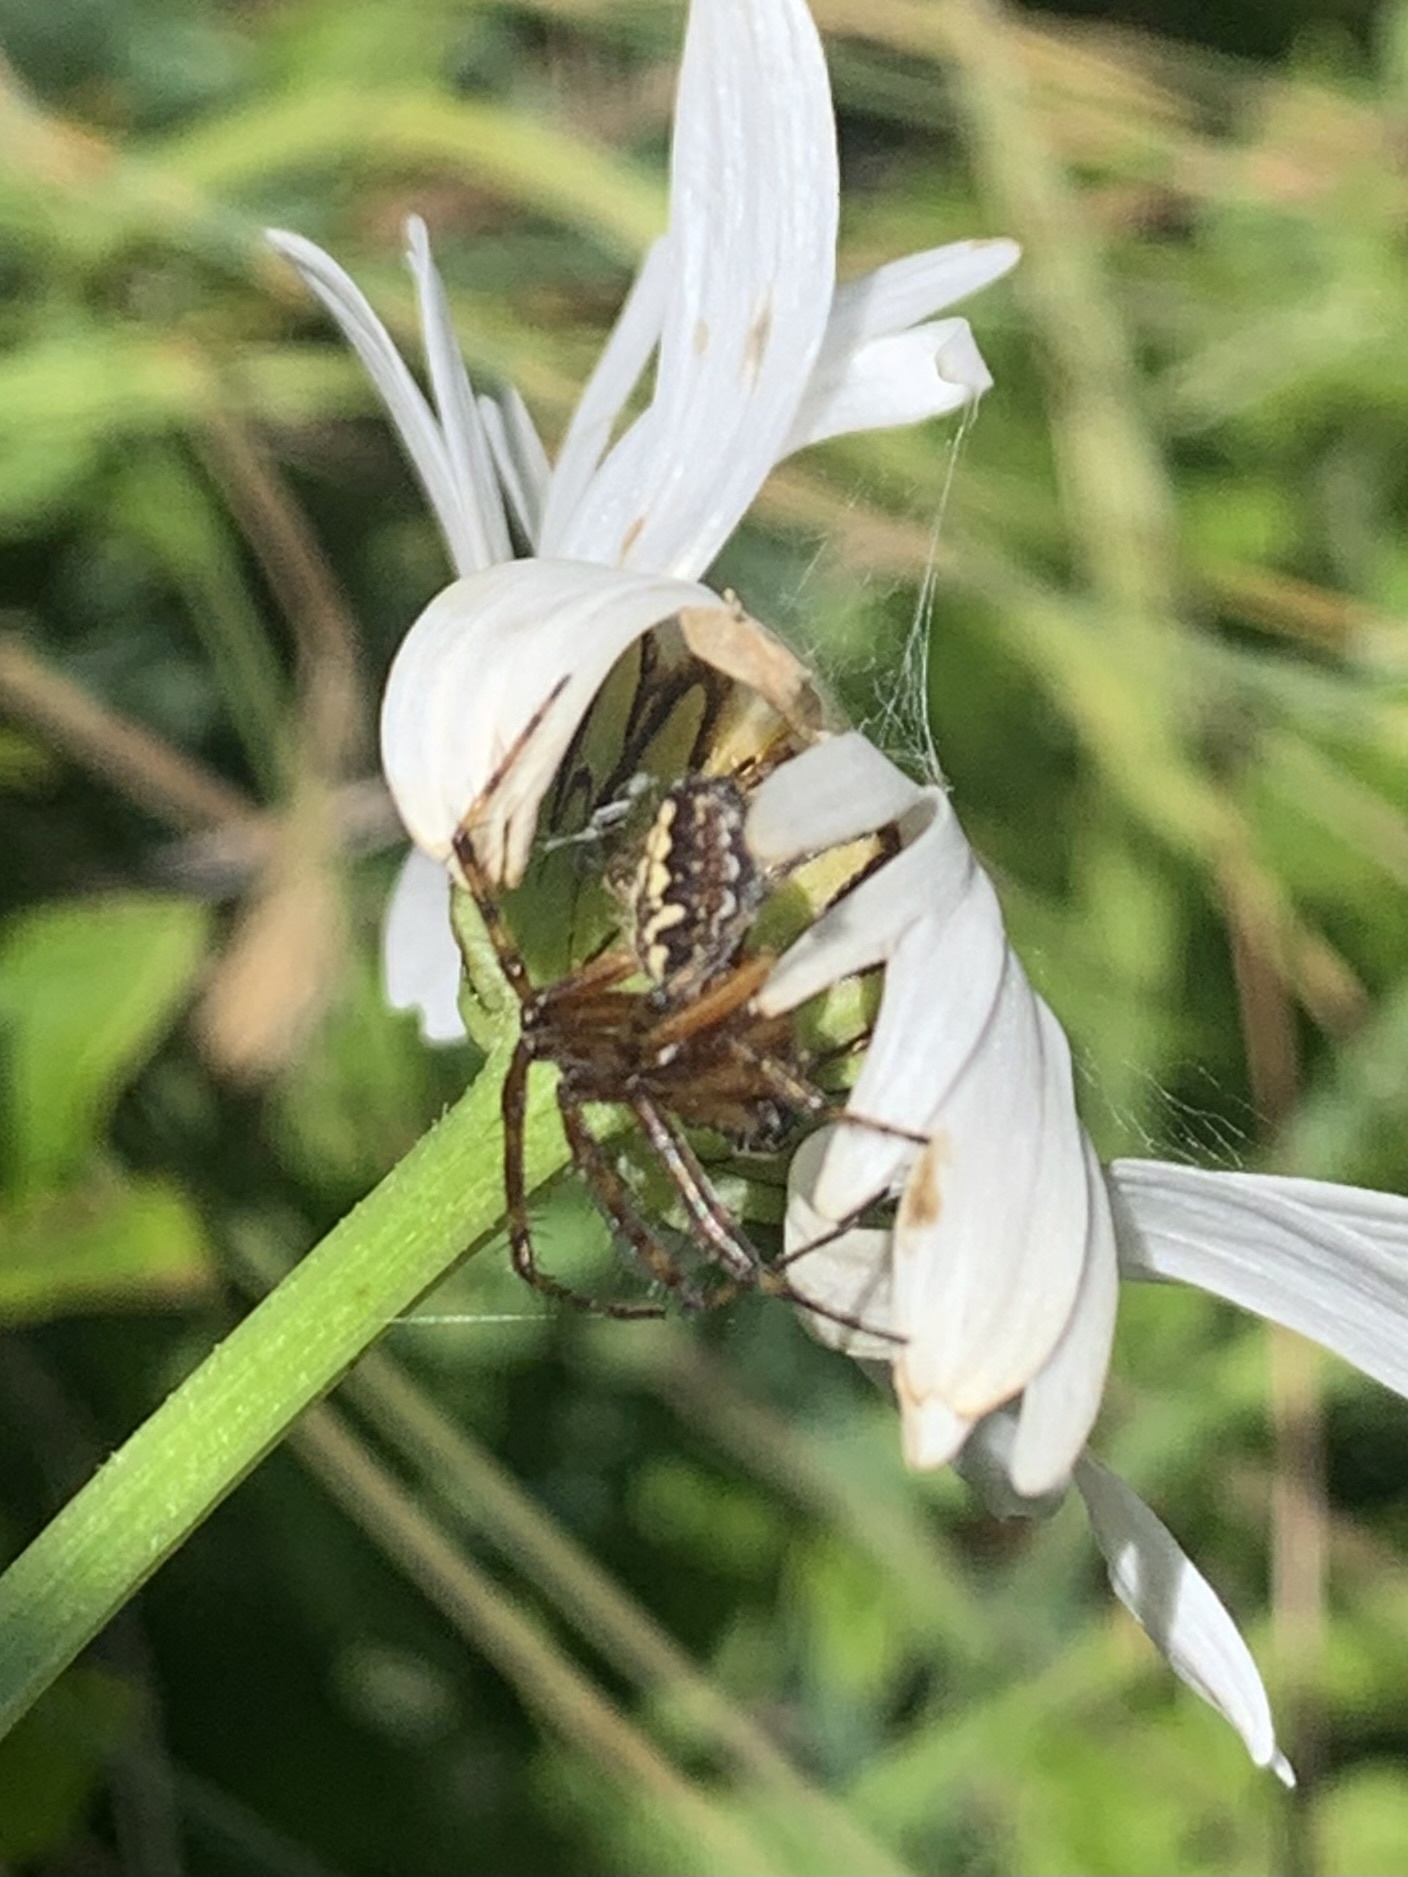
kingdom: Animalia
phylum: Arthropoda
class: Arachnida
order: Araneae
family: Araneidae
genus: Aculepeira
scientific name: Aculepeira ceropegia
